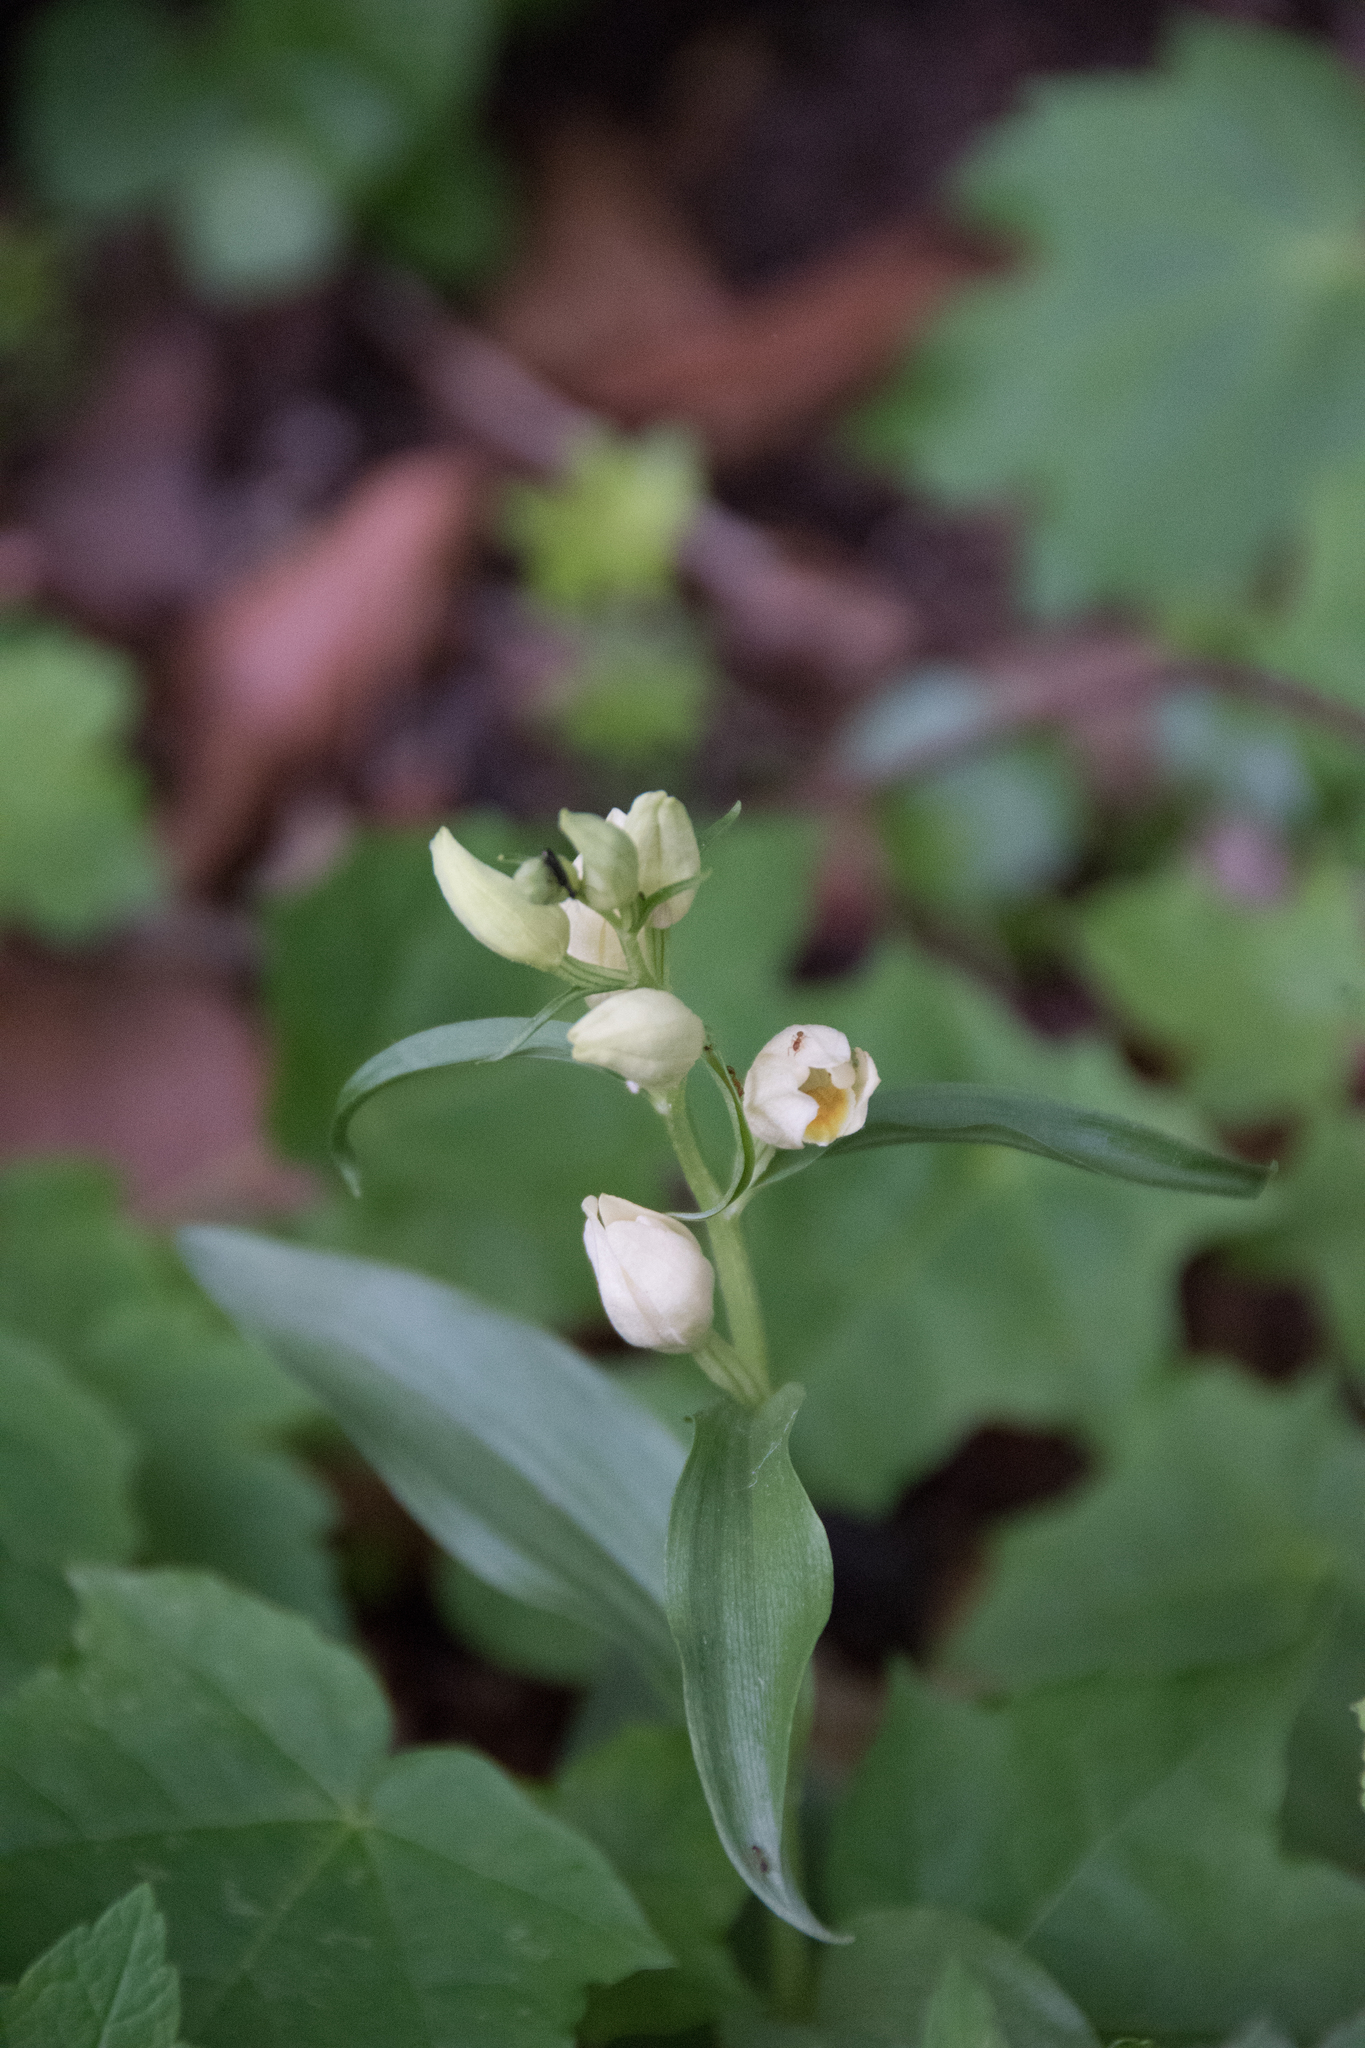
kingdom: Plantae
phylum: Tracheophyta
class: Liliopsida
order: Asparagales
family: Orchidaceae
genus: Cephalanthera
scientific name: Cephalanthera damasonium
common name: White helleborine
